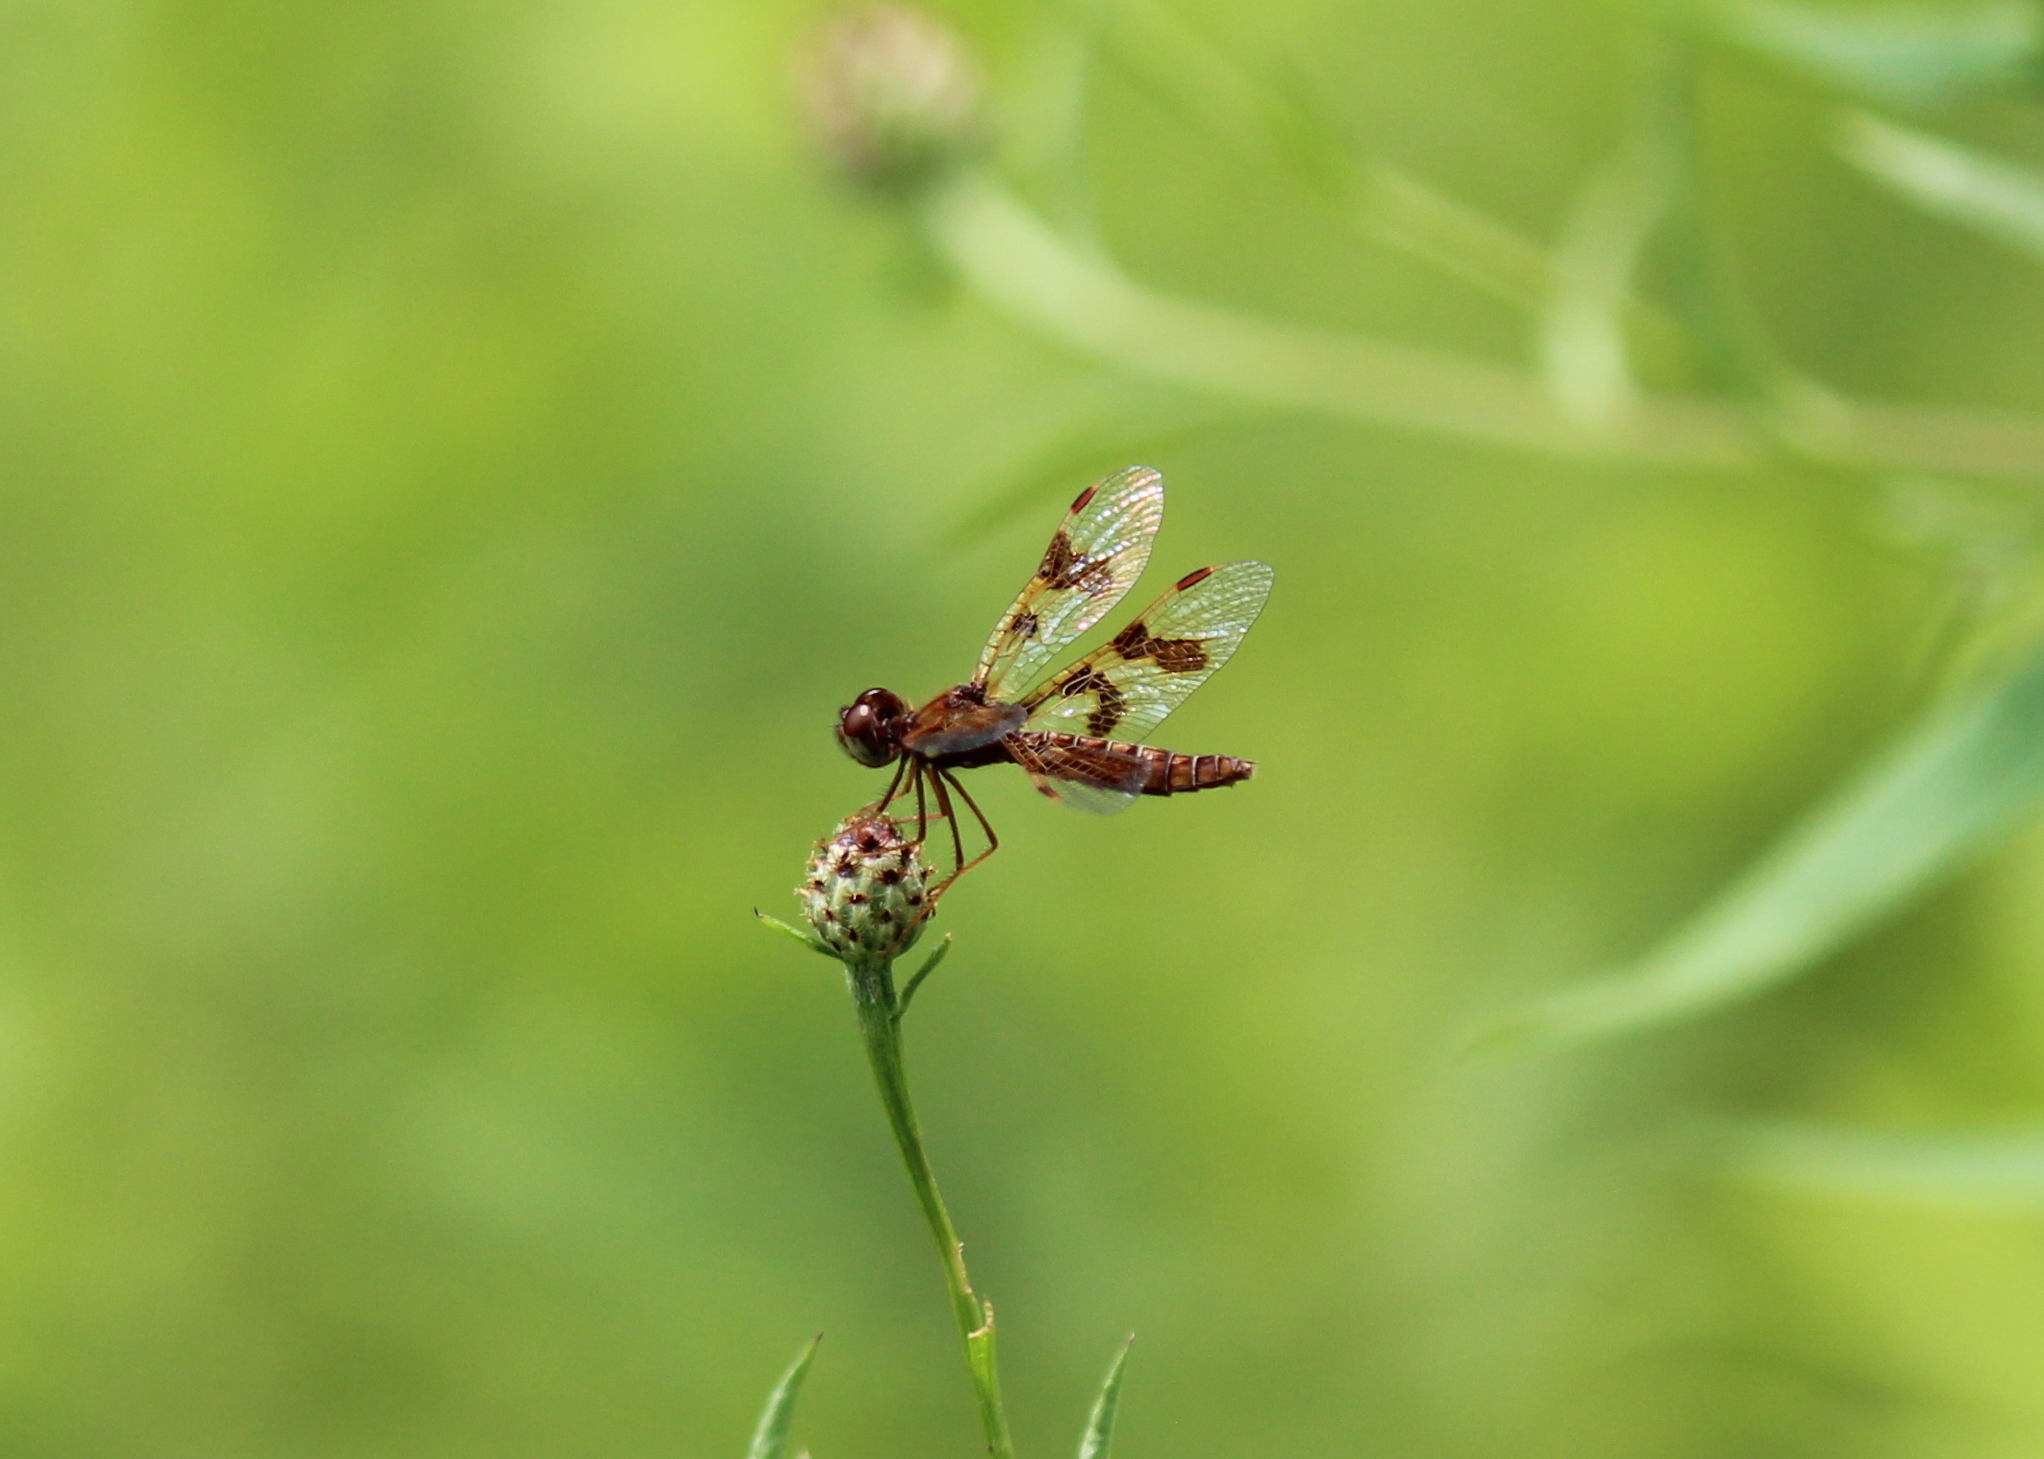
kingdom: Animalia
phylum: Arthropoda
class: Insecta
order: Odonata
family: Libellulidae
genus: Perithemis
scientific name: Perithemis tenera
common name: Eastern amberwing
